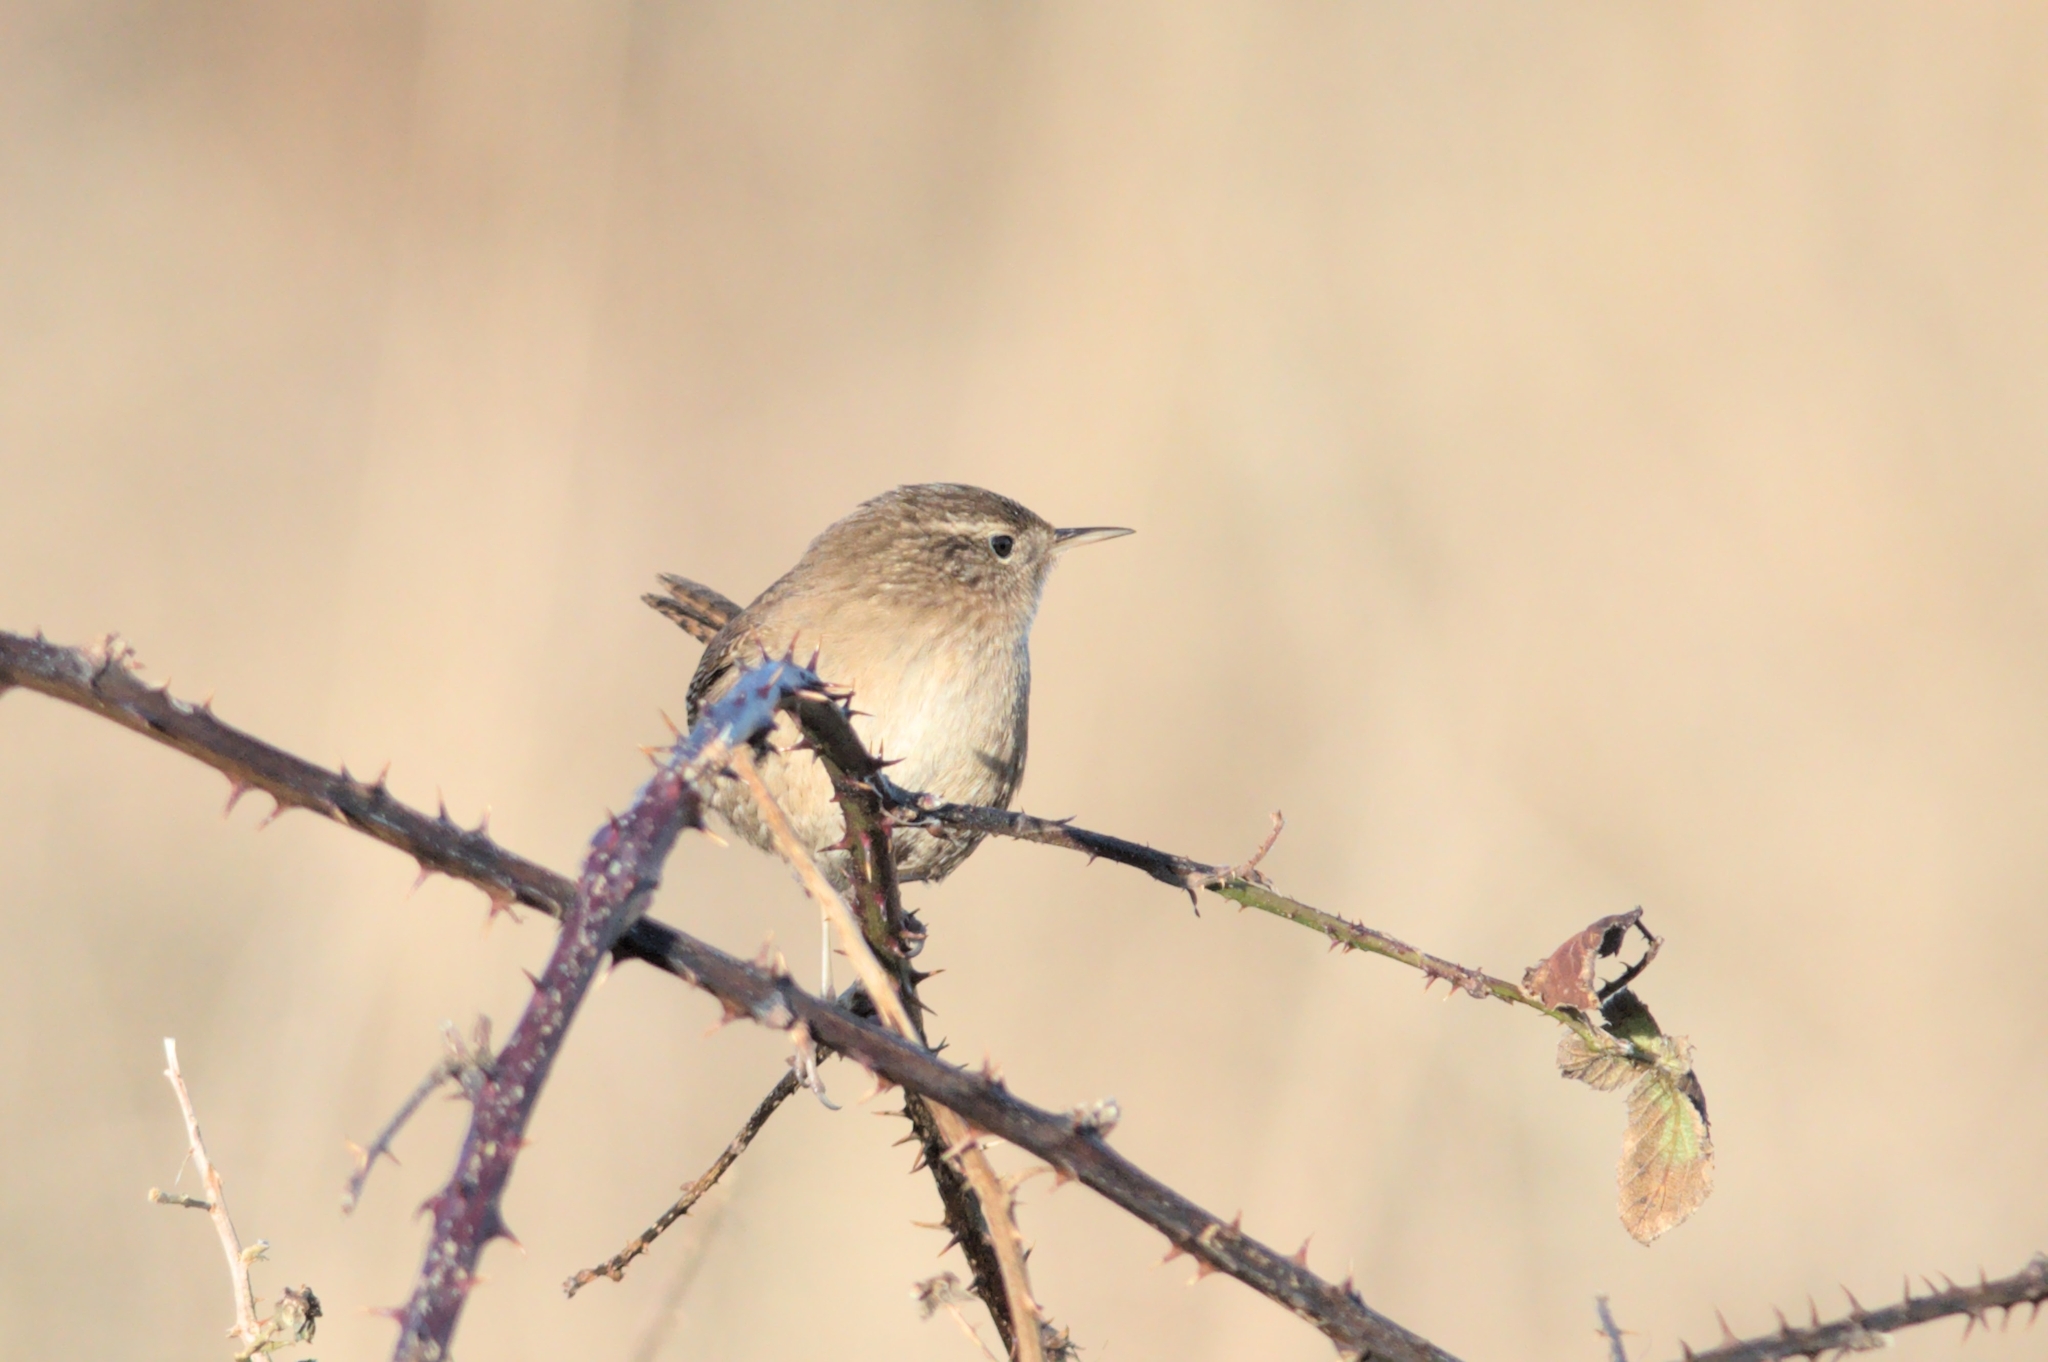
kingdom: Animalia
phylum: Chordata
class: Aves
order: Passeriformes
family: Troglodytidae
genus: Troglodytes
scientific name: Troglodytes troglodytes
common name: Eurasian wren
